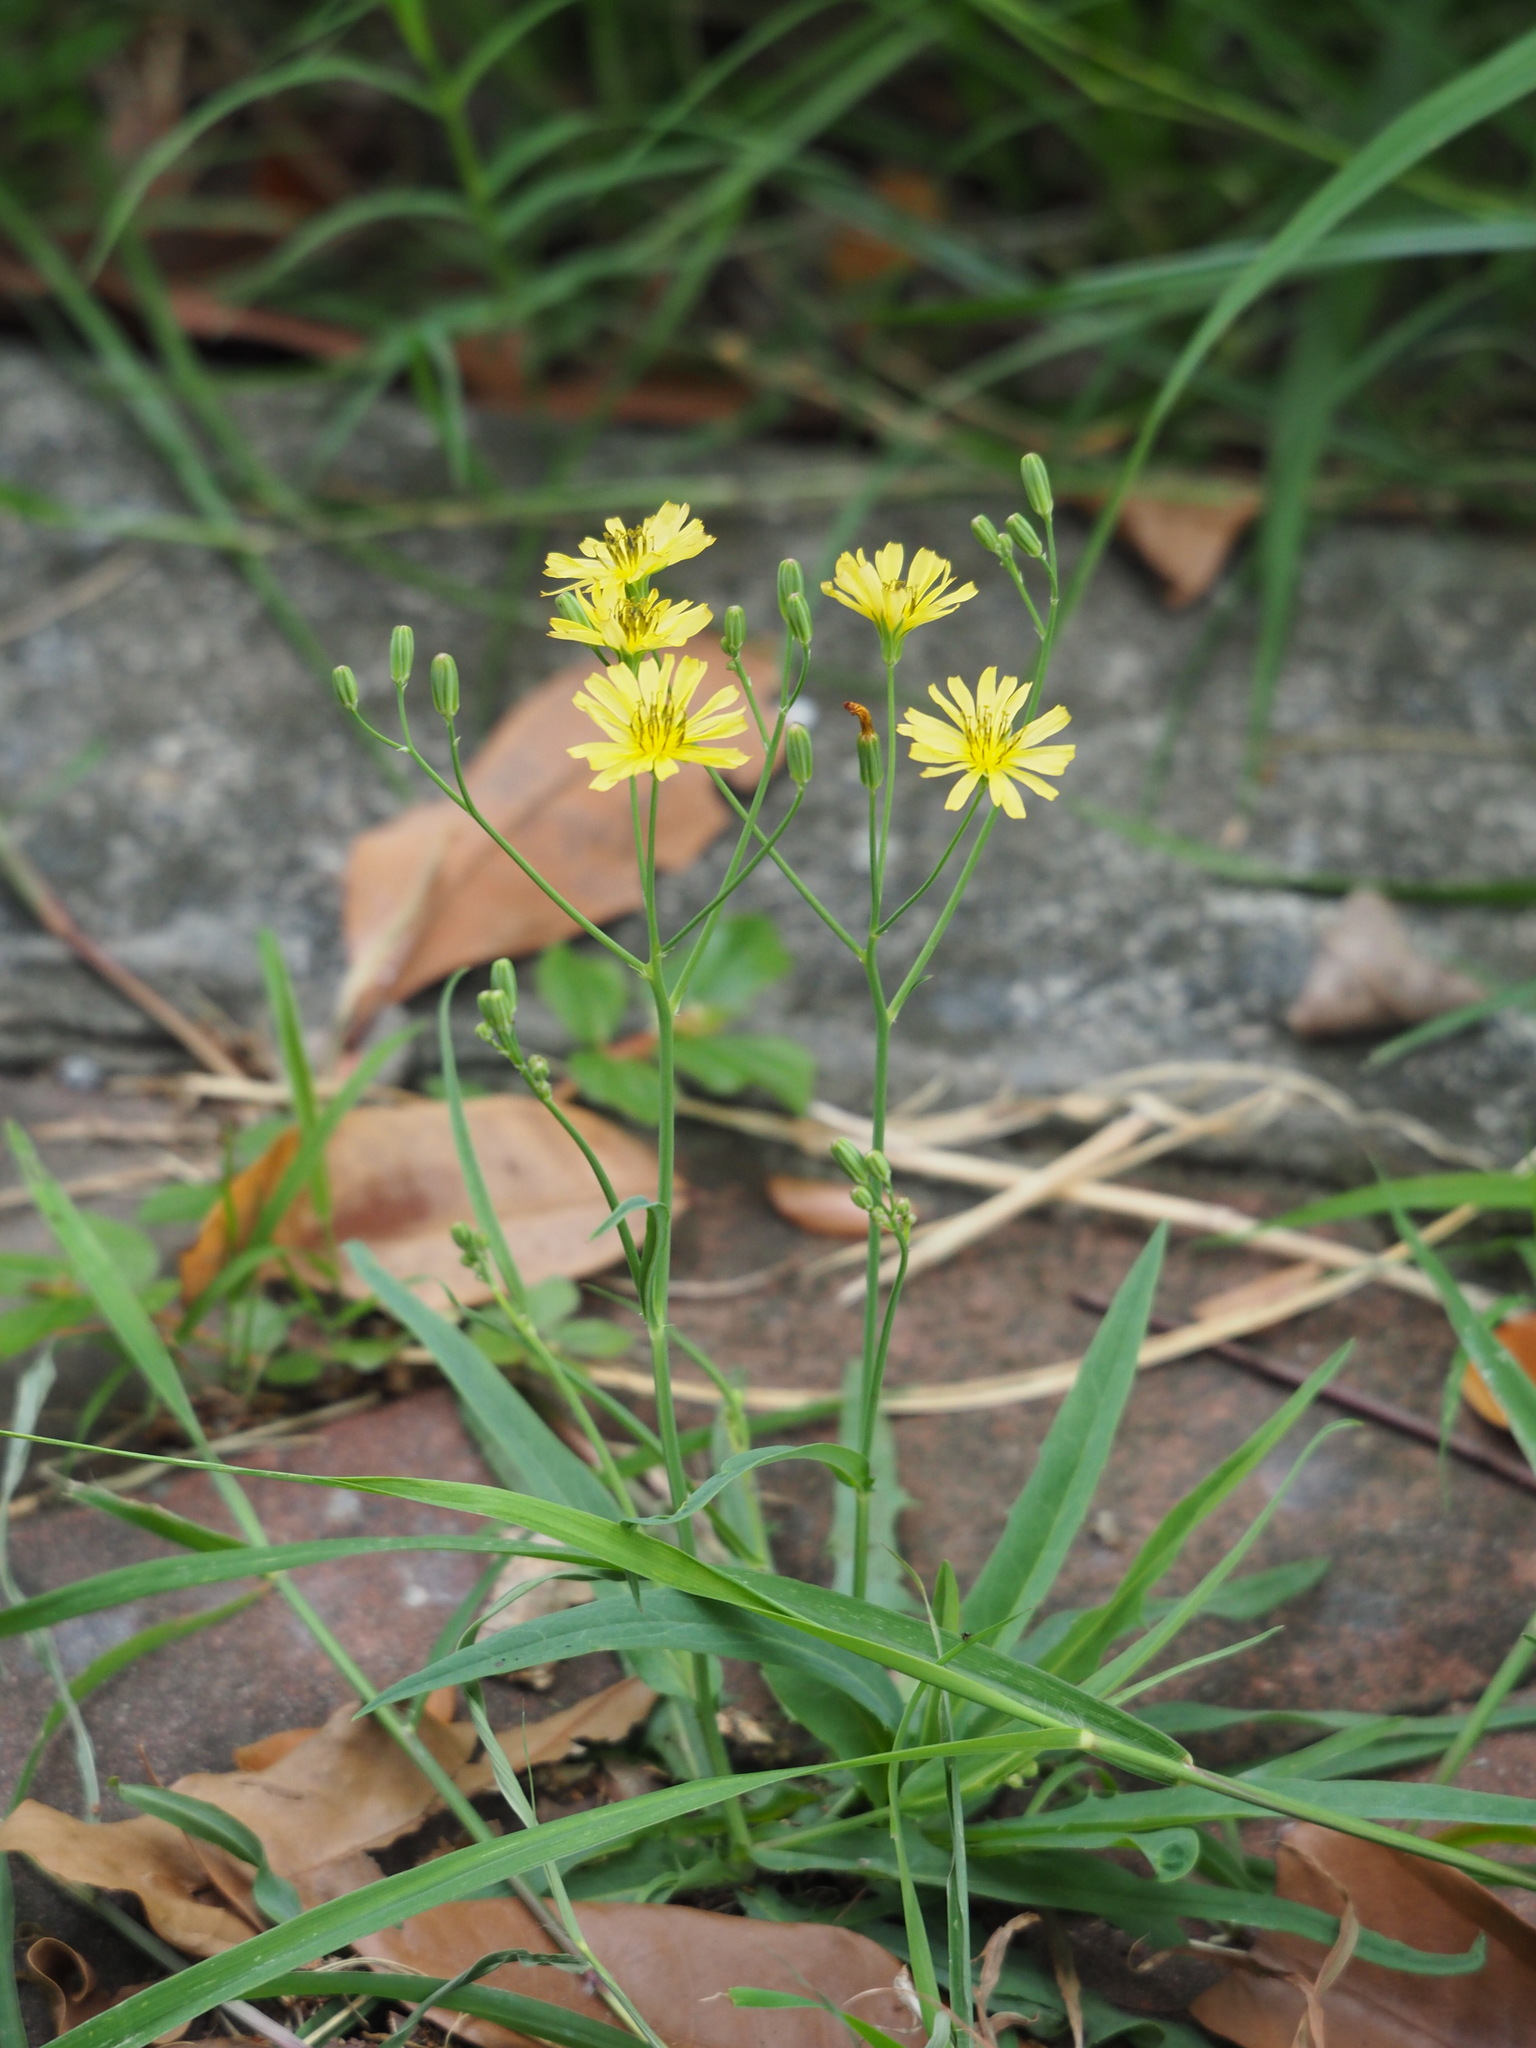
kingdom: Plantae
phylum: Tracheophyta
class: Magnoliopsida
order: Asterales
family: Asteraceae
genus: Ixeris
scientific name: Ixeris chinensis
